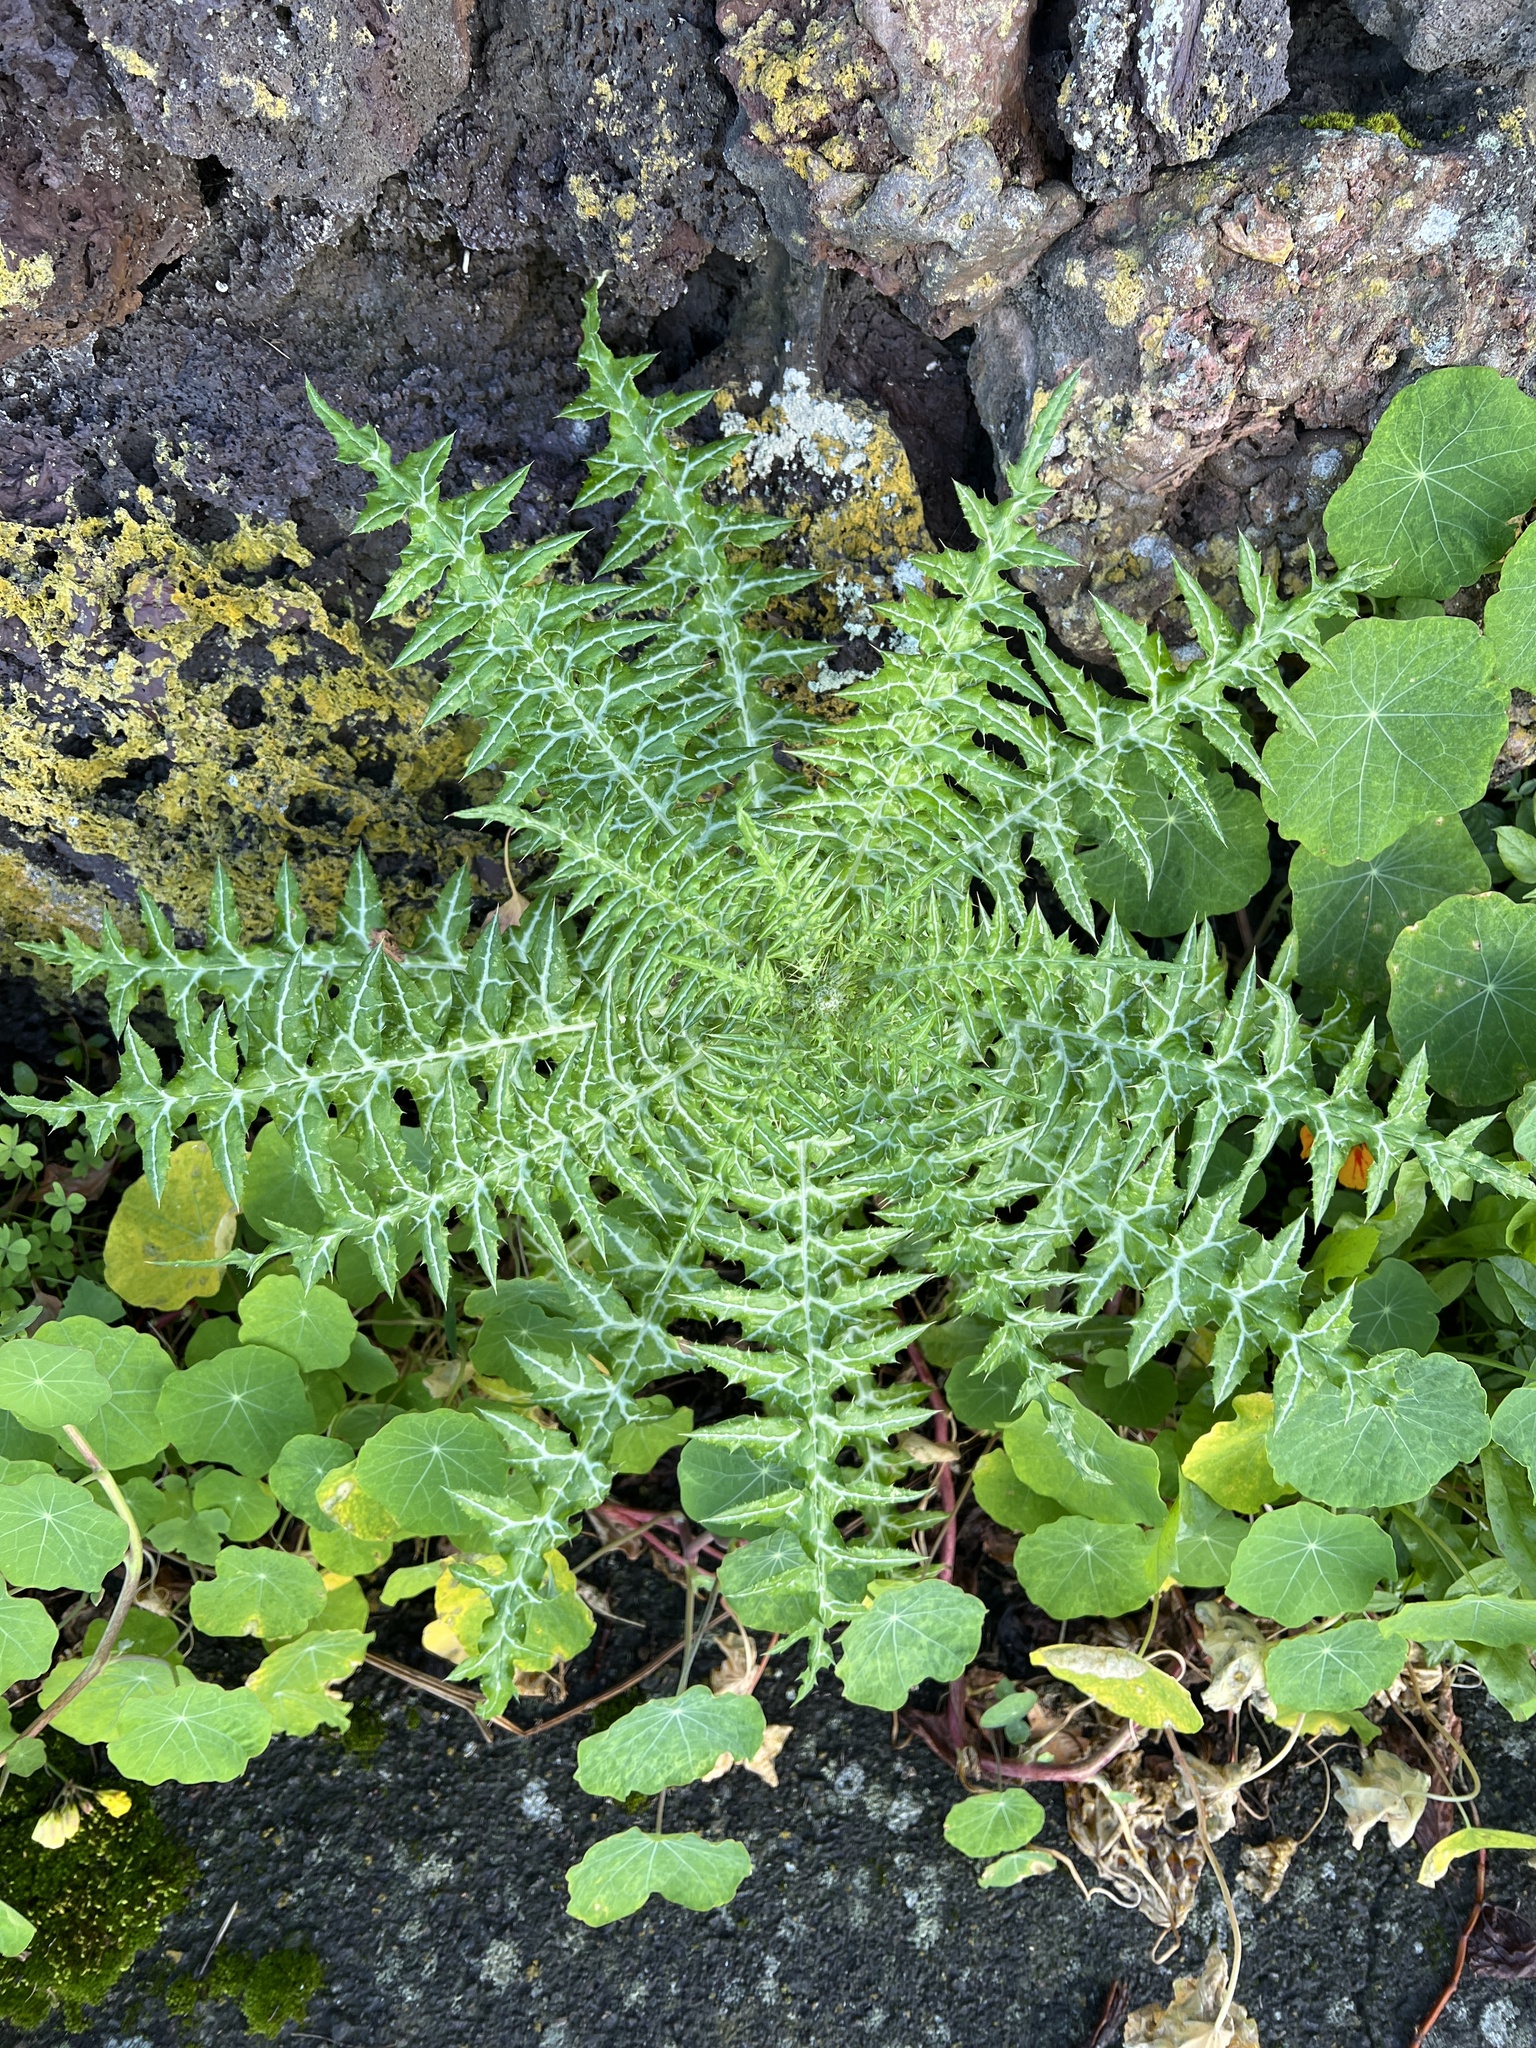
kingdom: Plantae
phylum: Tracheophyta
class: Magnoliopsida
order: Asterales
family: Asteraceae
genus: Galactites
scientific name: Galactites tomentosa
